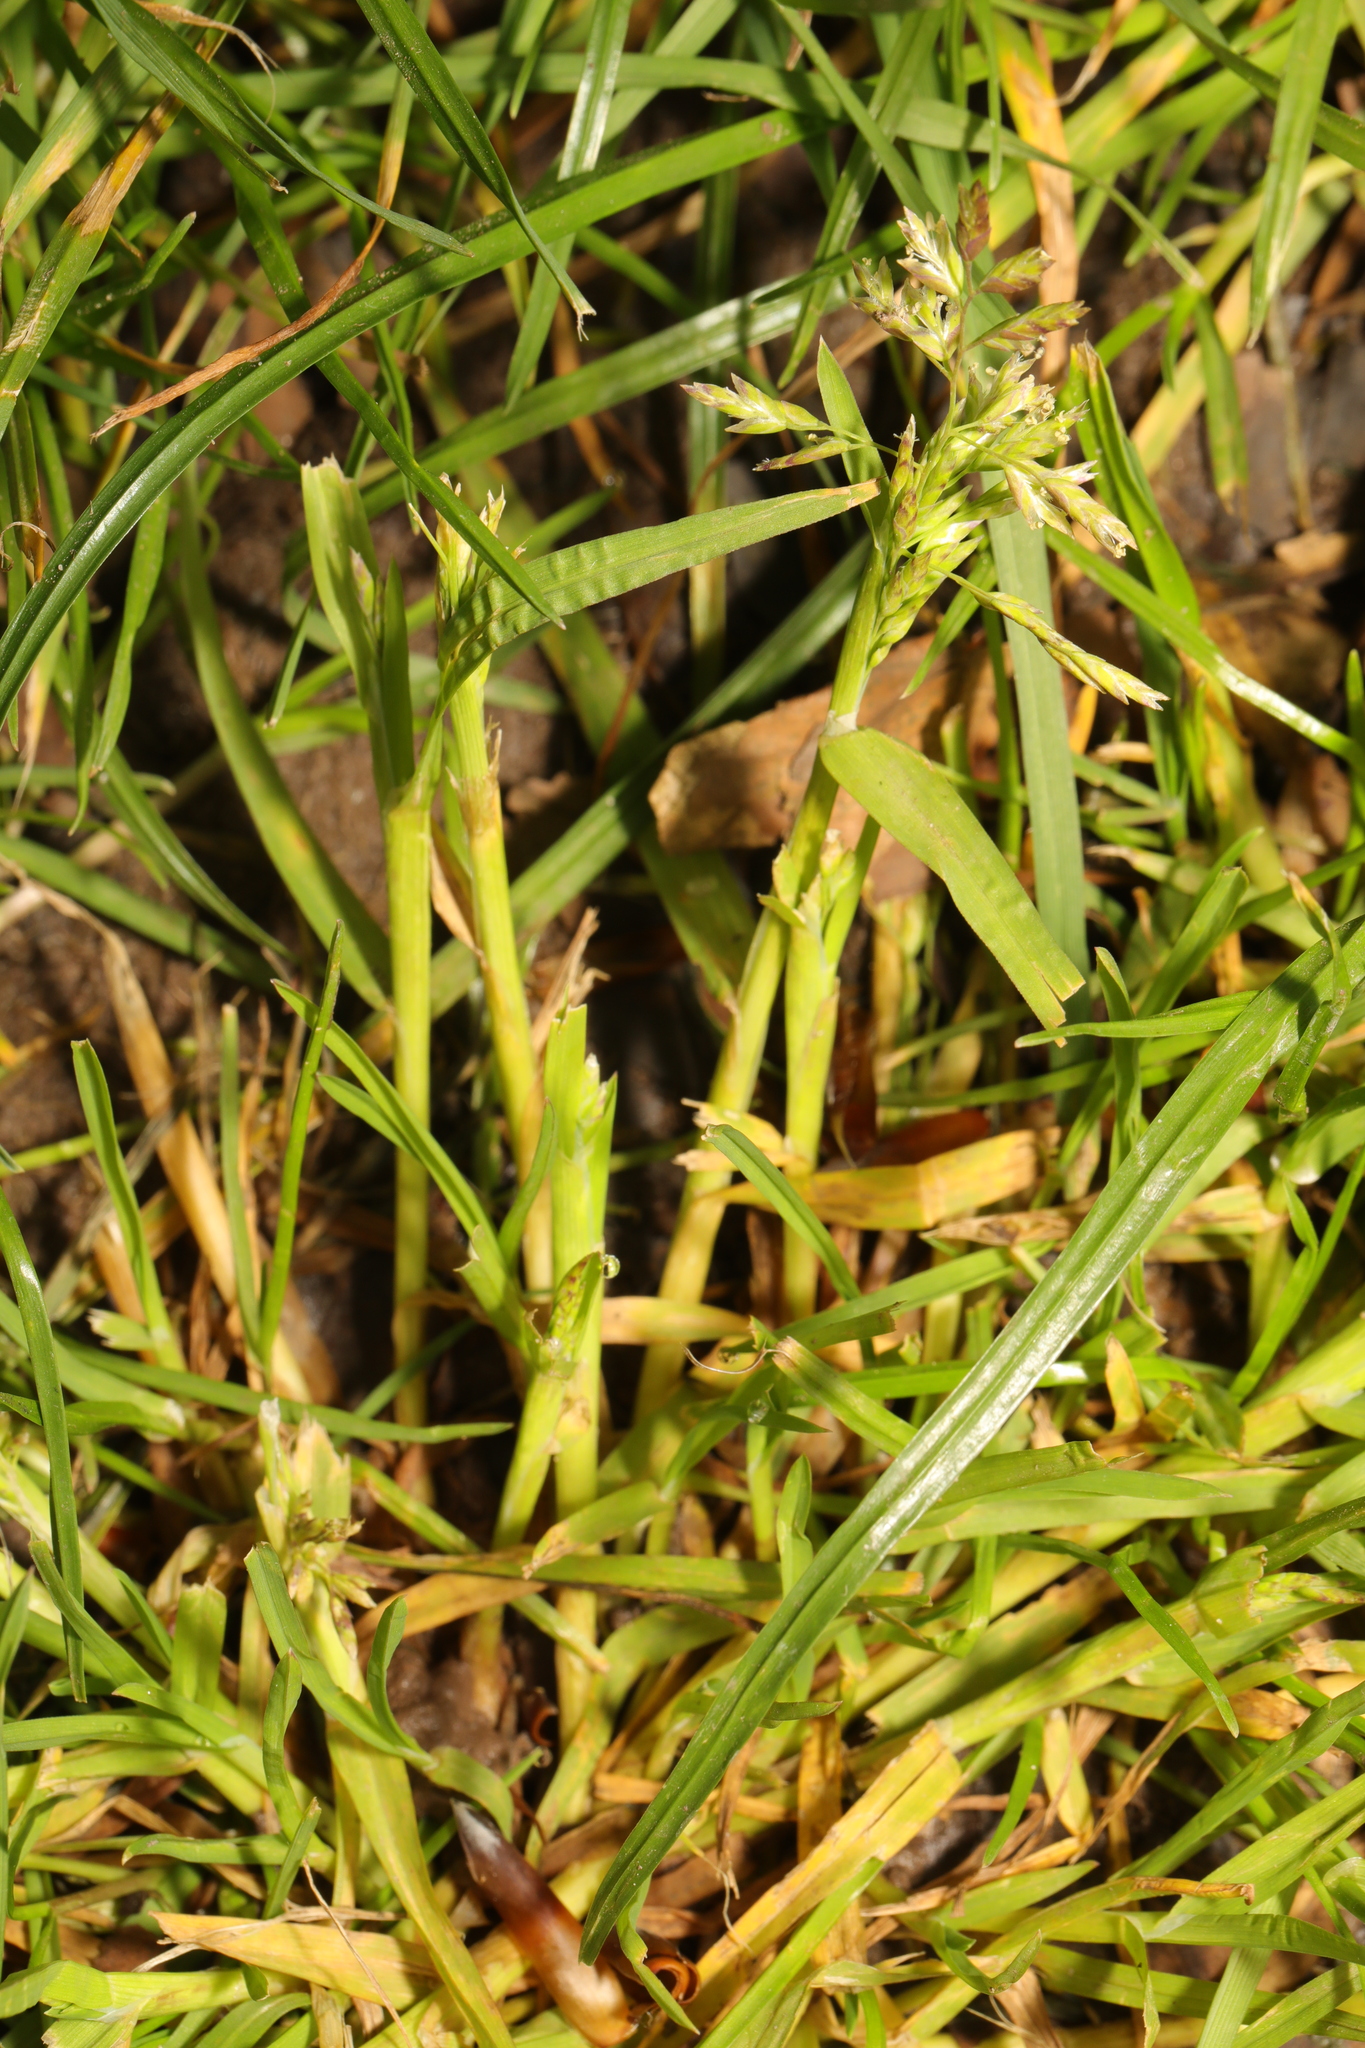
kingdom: Plantae
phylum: Tracheophyta
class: Liliopsida
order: Poales
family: Poaceae
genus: Poa
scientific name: Poa annua
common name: Annual bluegrass
